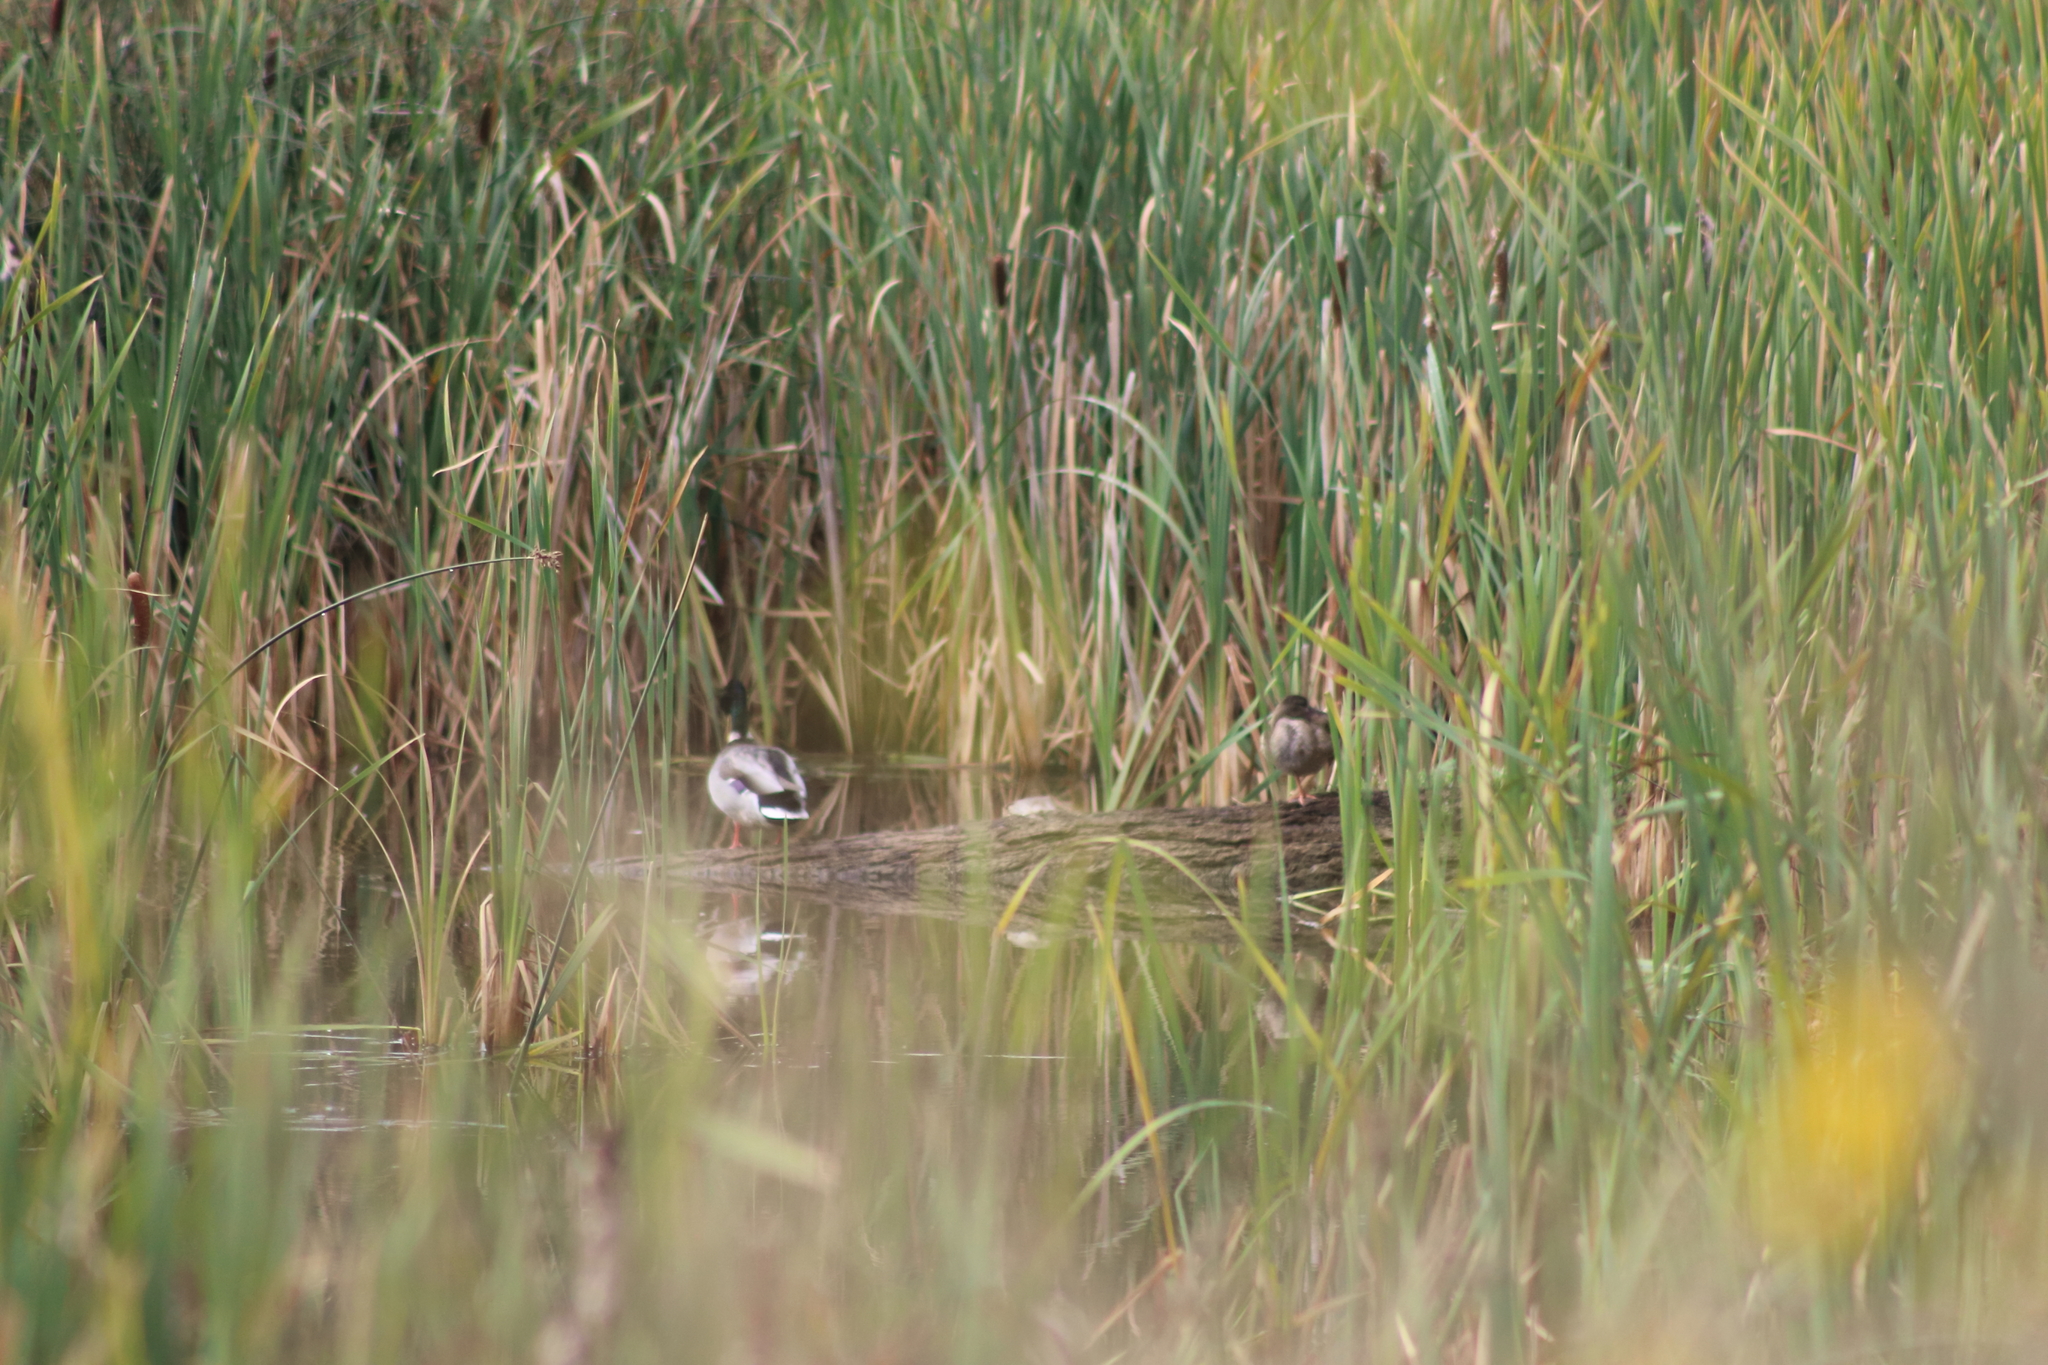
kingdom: Animalia
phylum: Chordata
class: Aves
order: Anseriformes
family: Anatidae
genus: Anas
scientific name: Anas platyrhynchos
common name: Mallard
